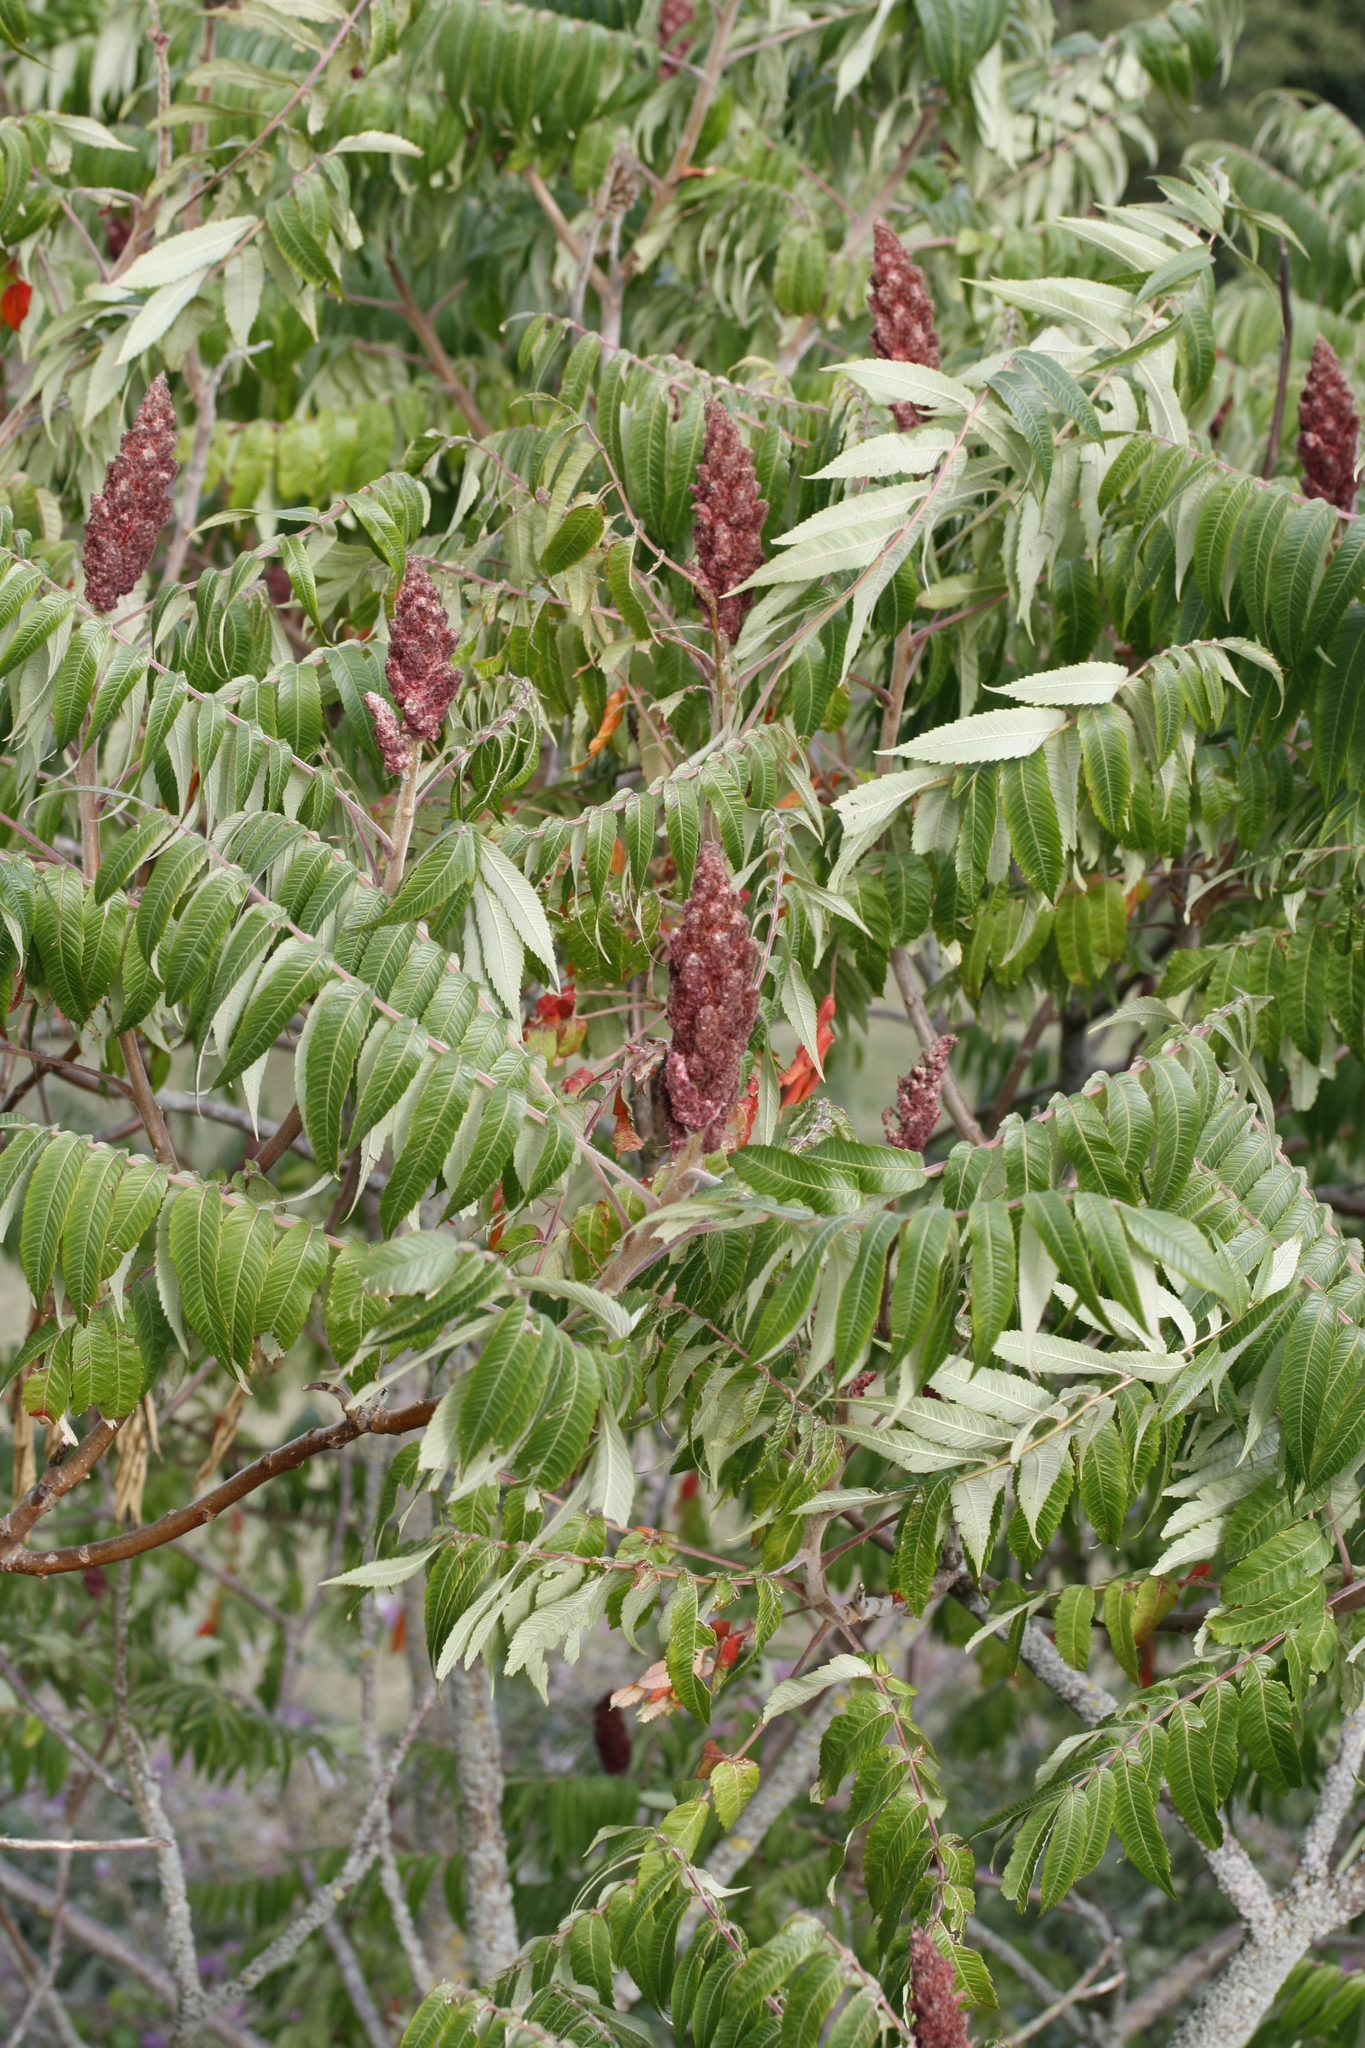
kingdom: Plantae
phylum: Tracheophyta
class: Magnoliopsida
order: Sapindales
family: Anacardiaceae
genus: Rhus
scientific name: Rhus typhina
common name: Staghorn sumac
